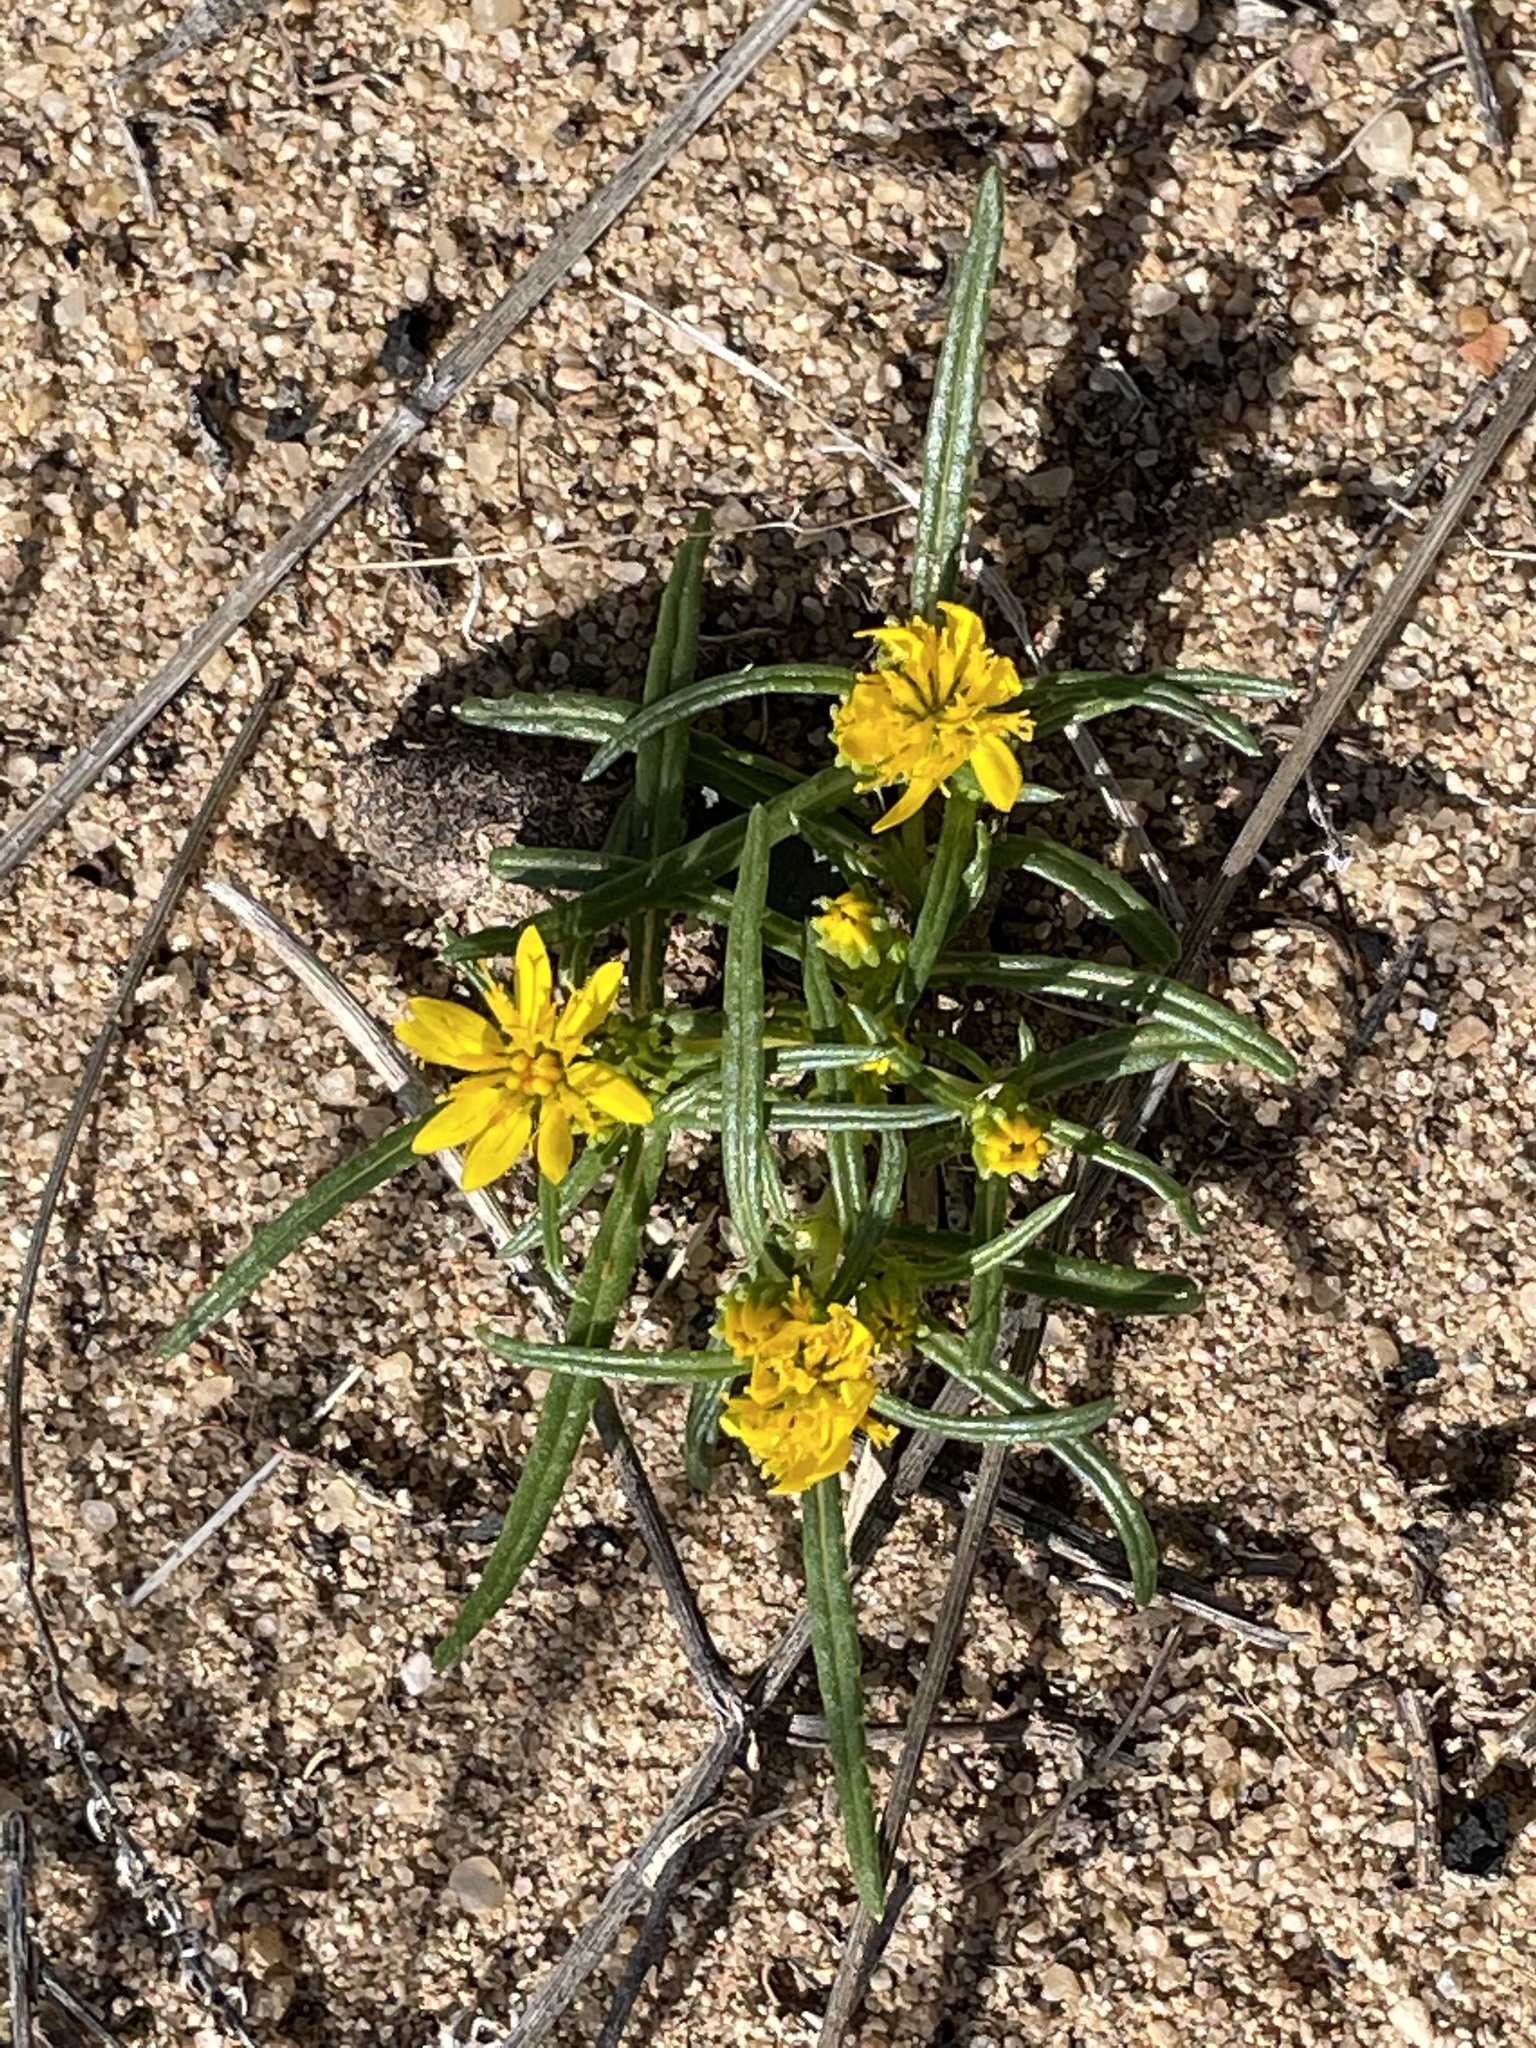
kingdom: Plantae
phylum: Tracheophyta
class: Magnoliopsida
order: Asterales
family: Asteraceae
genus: Pectis
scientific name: Pectis angustifolia
